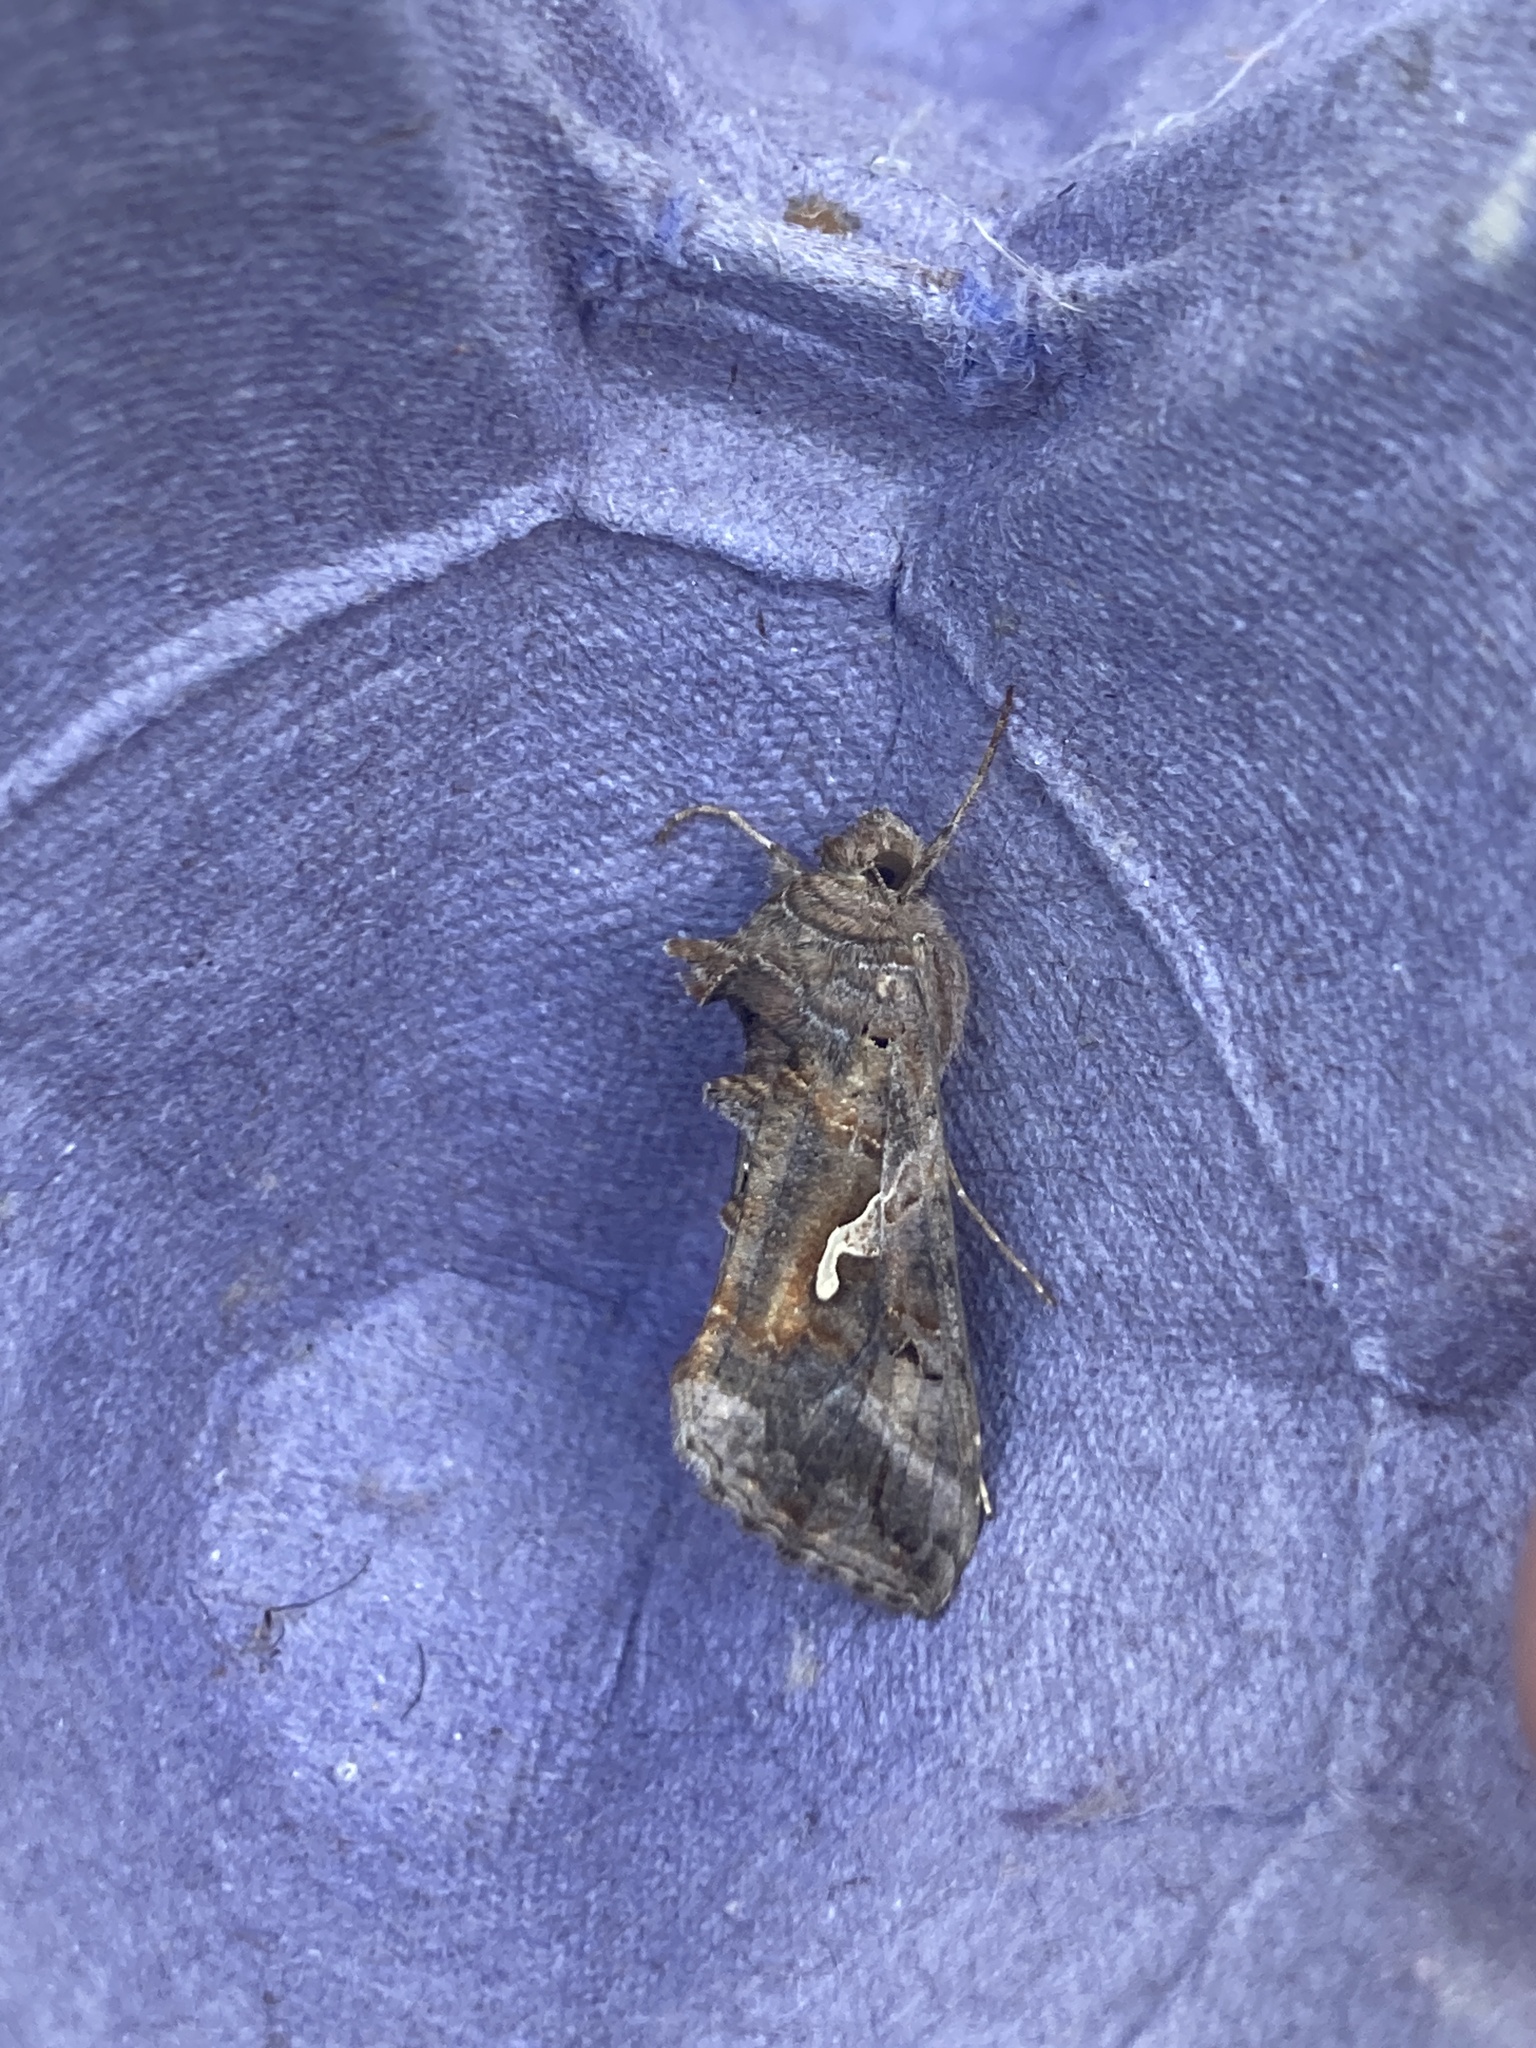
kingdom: Animalia
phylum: Arthropoda
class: Insecta
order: Lepidoptera
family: Noctuidae
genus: Autographa
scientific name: Autographa gamma
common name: Silver y
